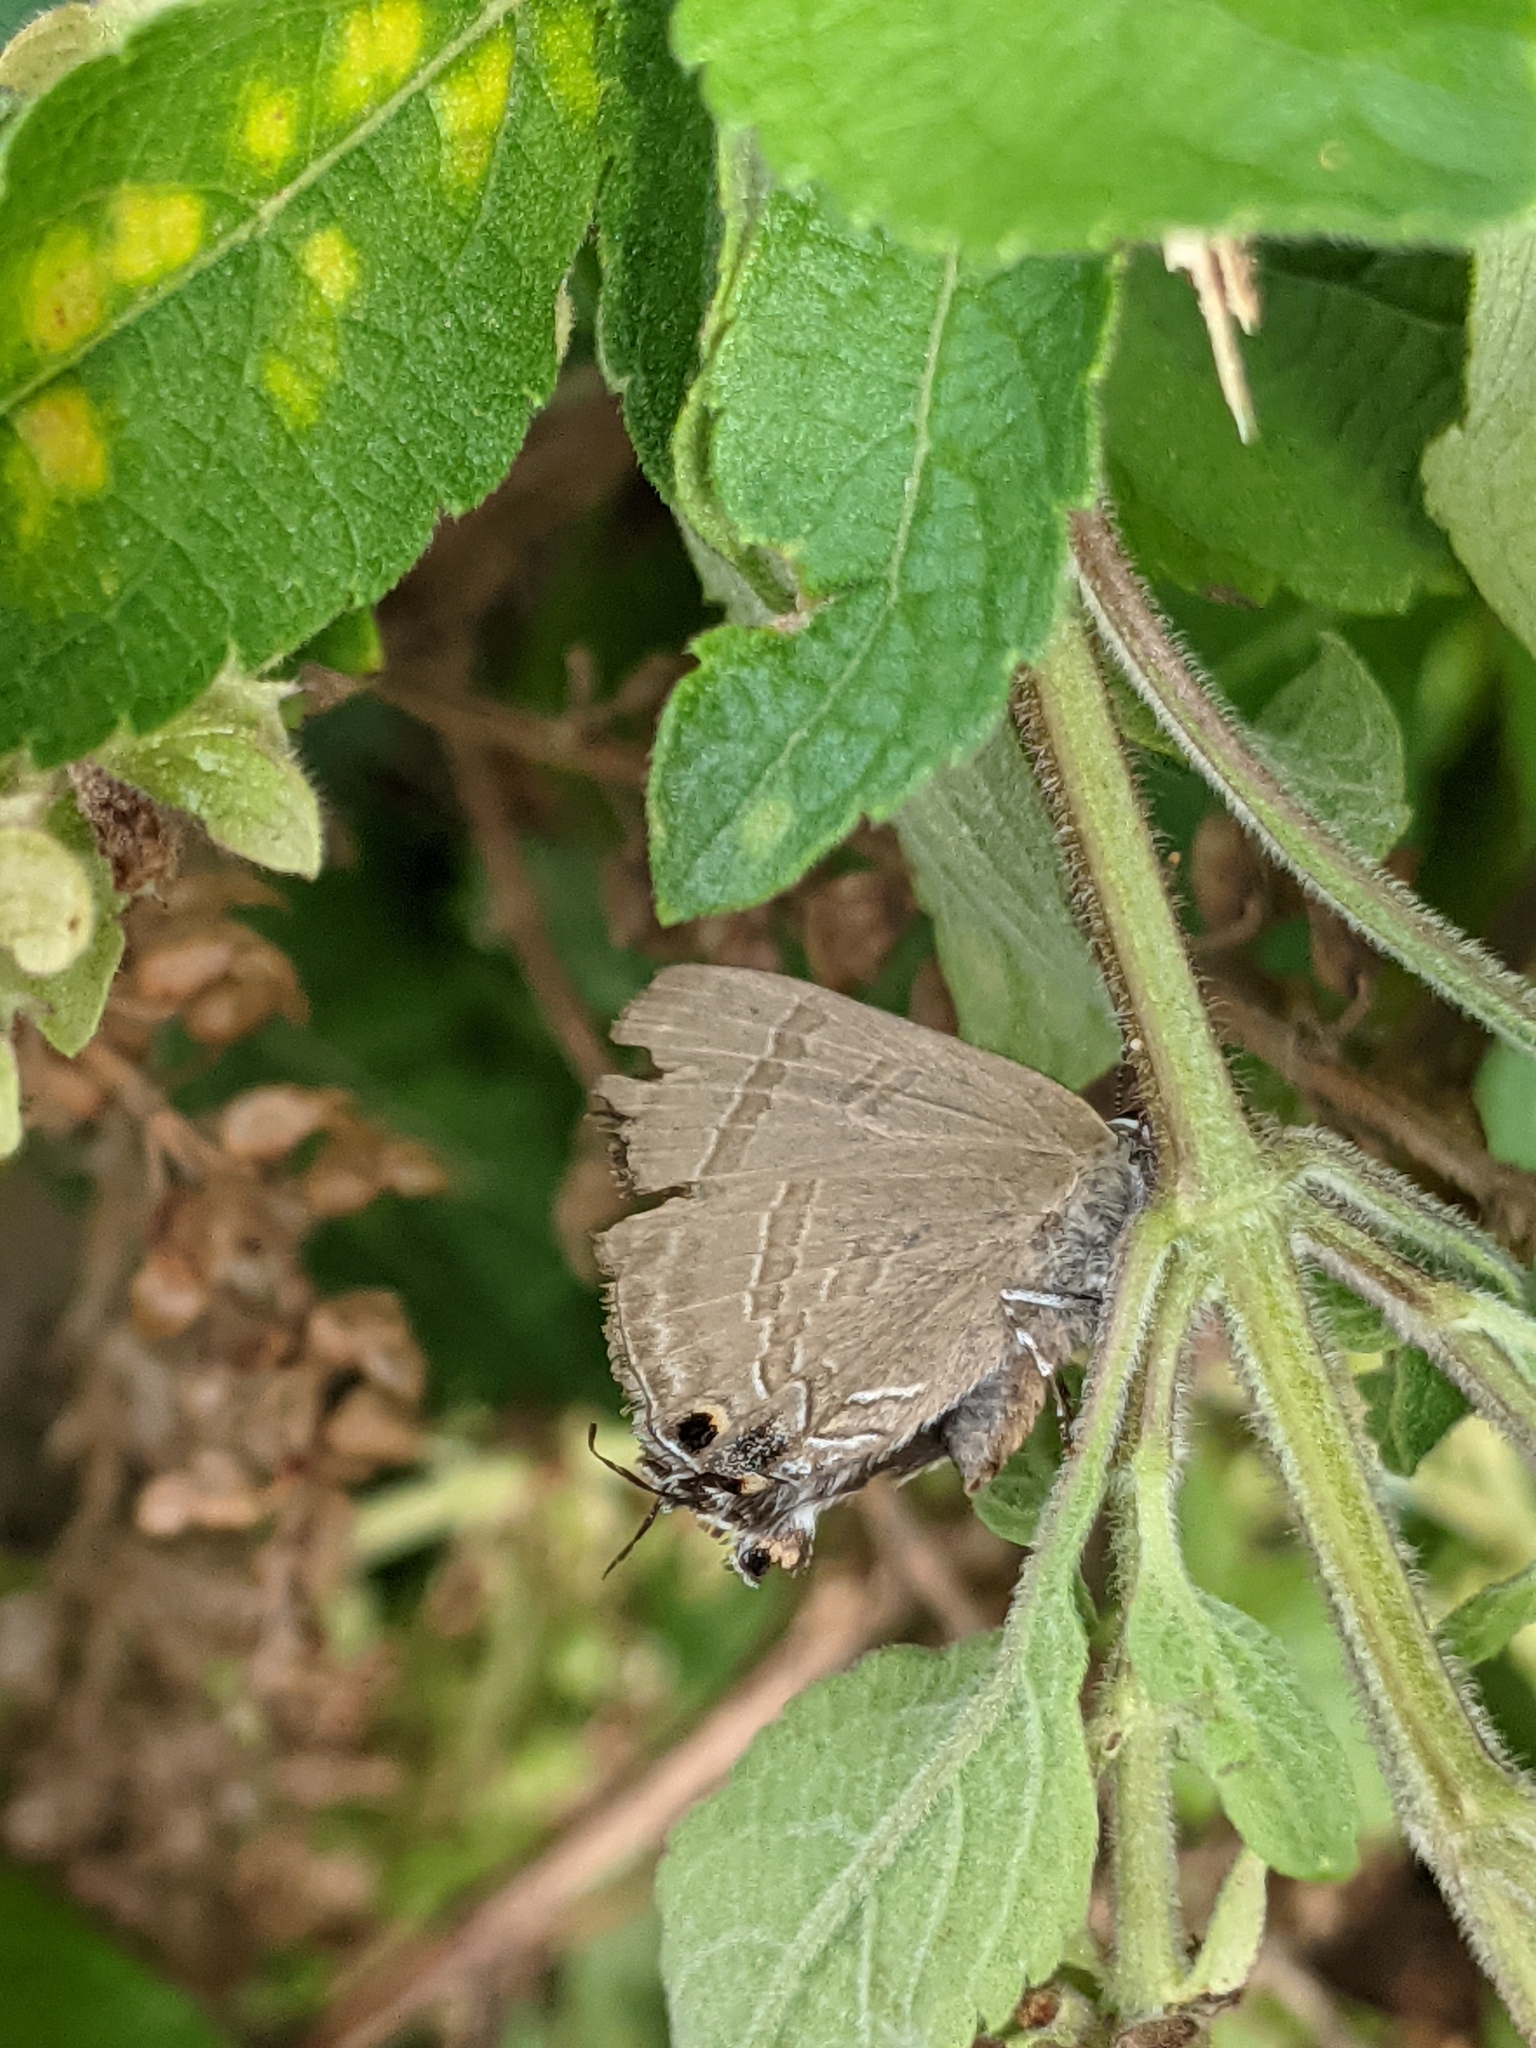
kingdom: Animalia
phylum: Arthropoda
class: Insecta
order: Lepidoptera
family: Lycaenidae
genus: Rapala
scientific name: Rapala manea
